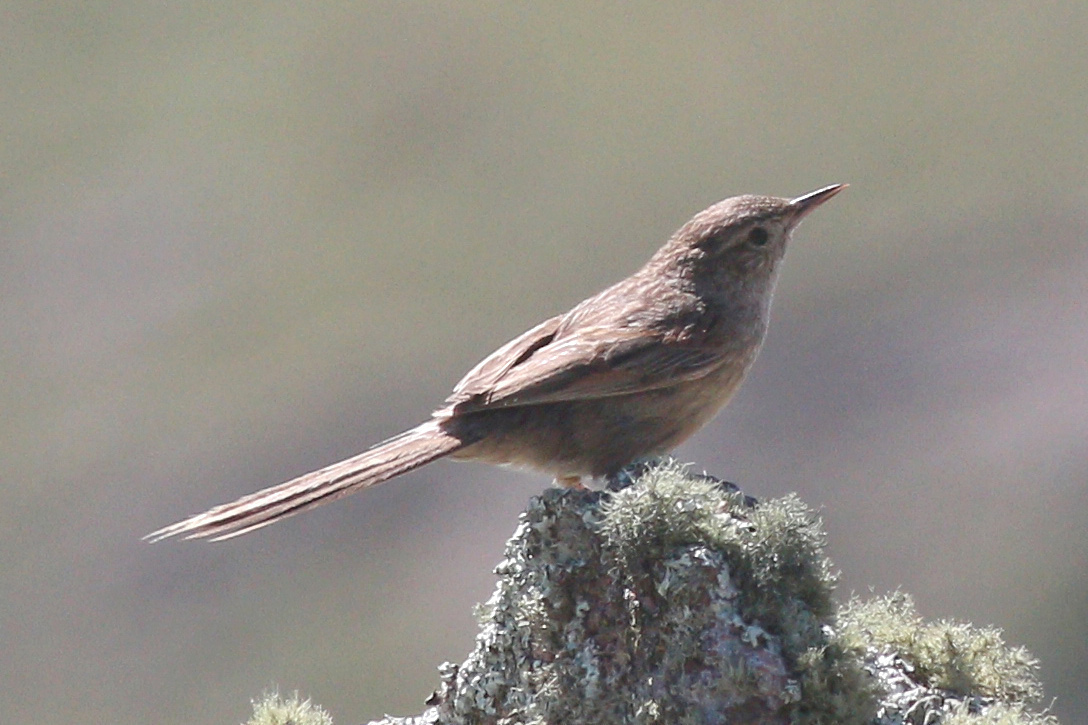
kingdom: Animalia
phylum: Chordata
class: Aves
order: Passeriformes
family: Furnariidae
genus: Asthenes
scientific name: Asthenes wyatti
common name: Streak-backed canastero
